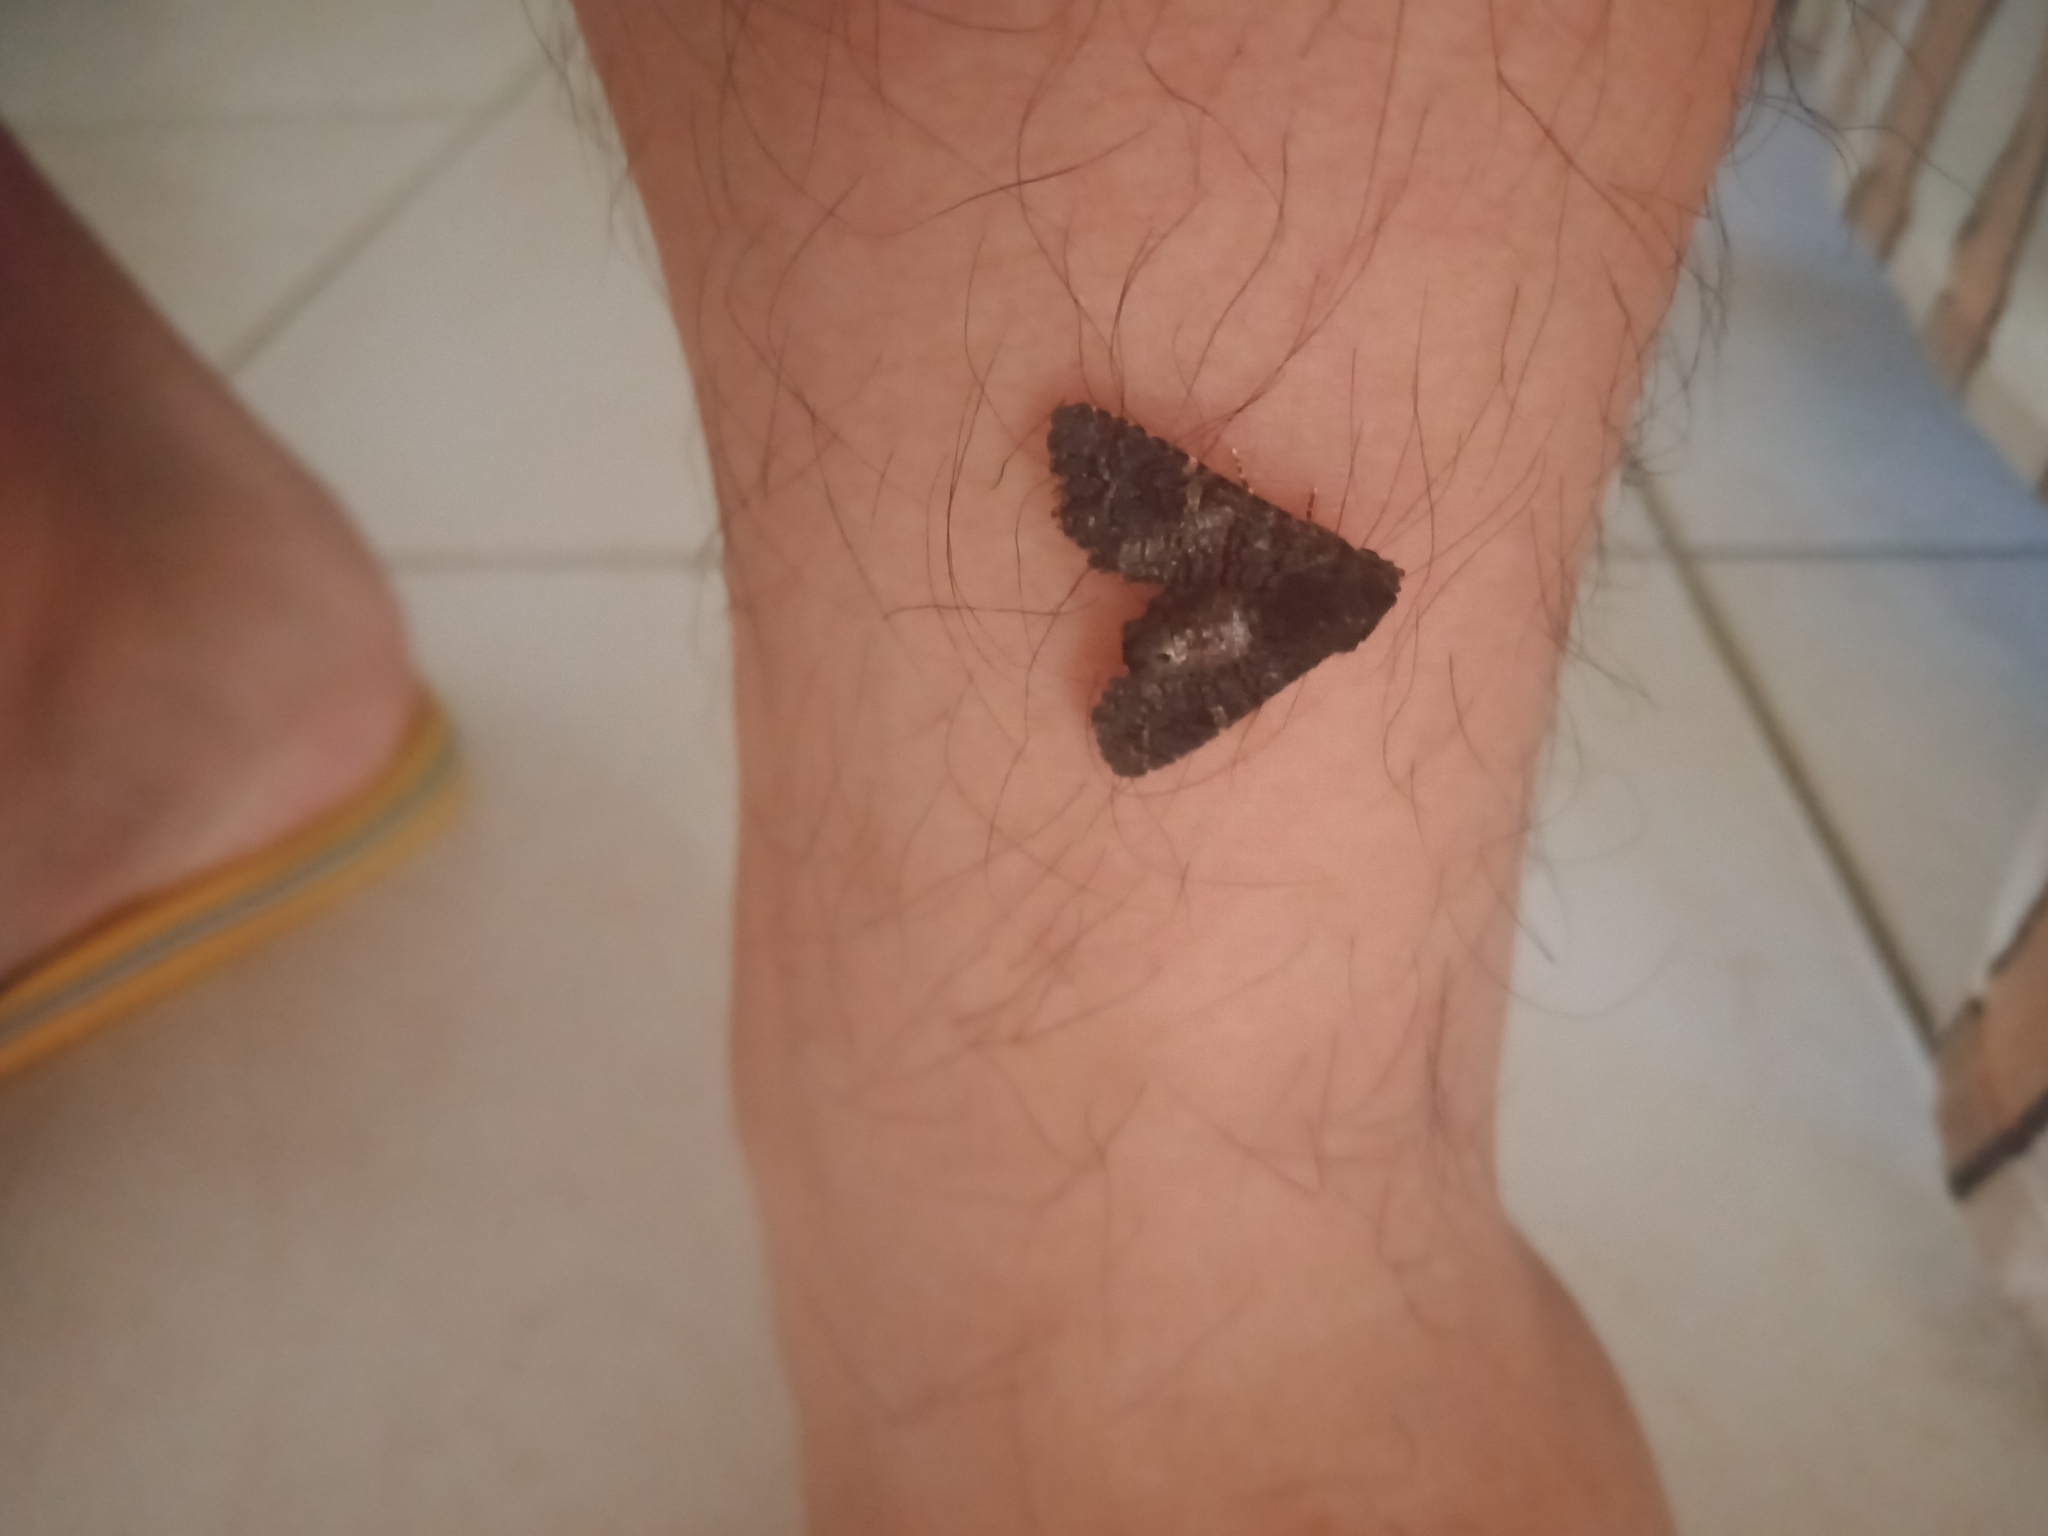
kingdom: Animalia
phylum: Arthropoda
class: Insecta
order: Lepidoptera
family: Euteliidae
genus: Pataeta
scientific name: Pataeta carbo
